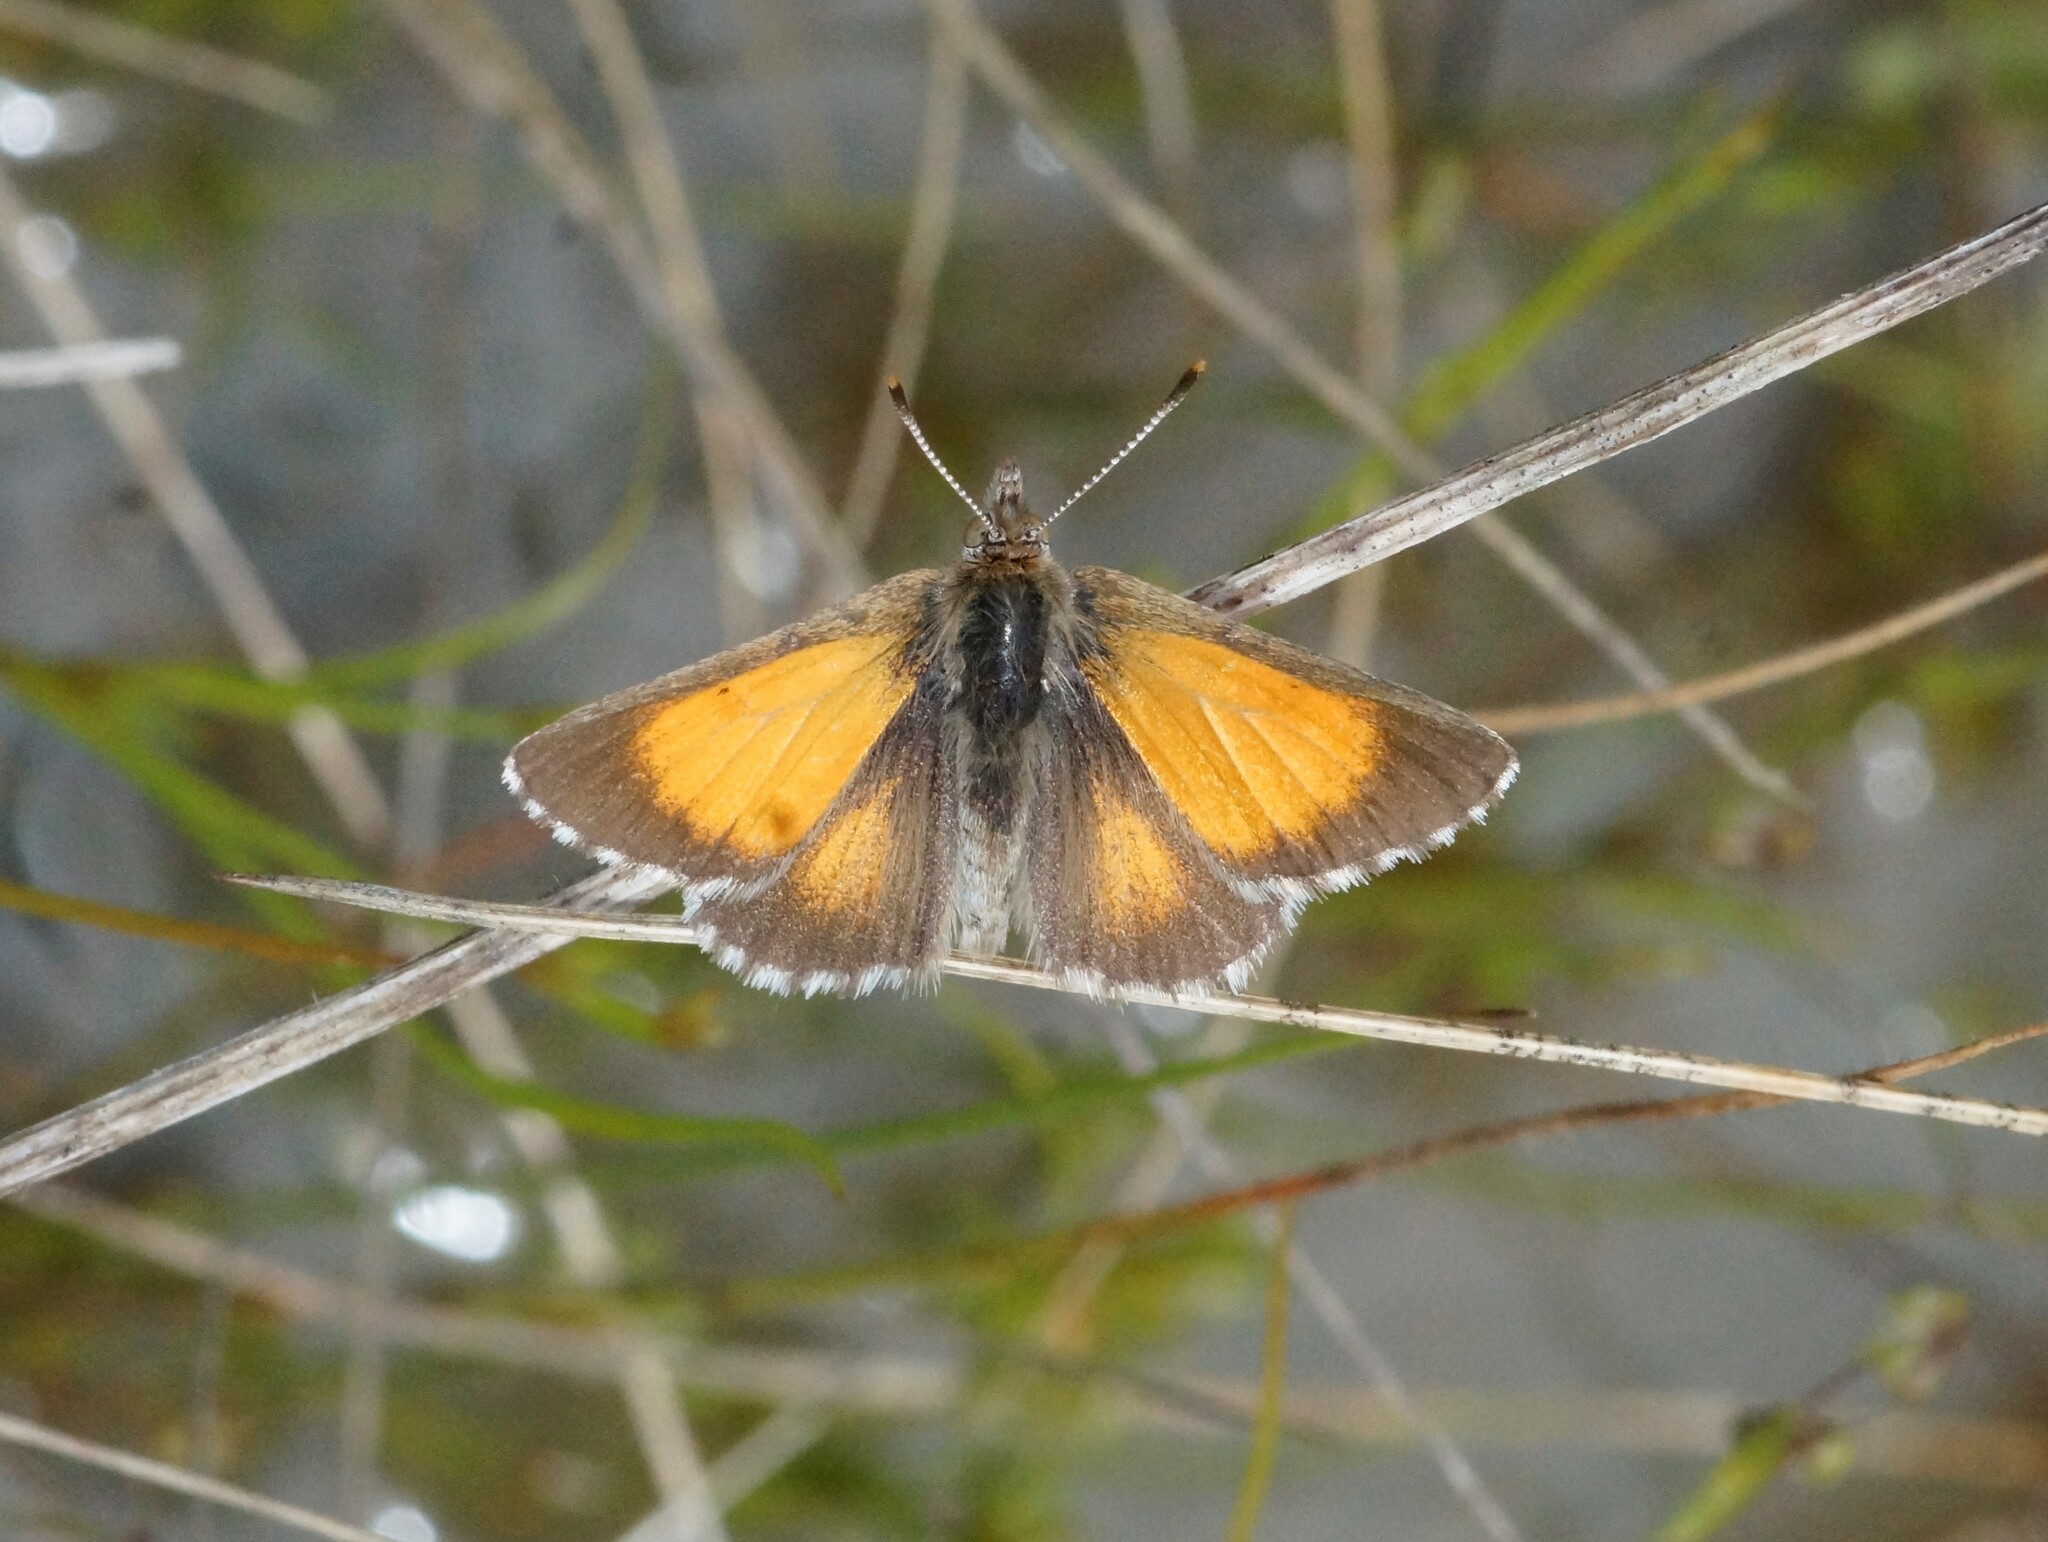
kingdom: Animalia
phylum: Arthropoda
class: Insecta
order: Lepidoptera
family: Lycaenidae
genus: Lucia
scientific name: Lucia limbaria
